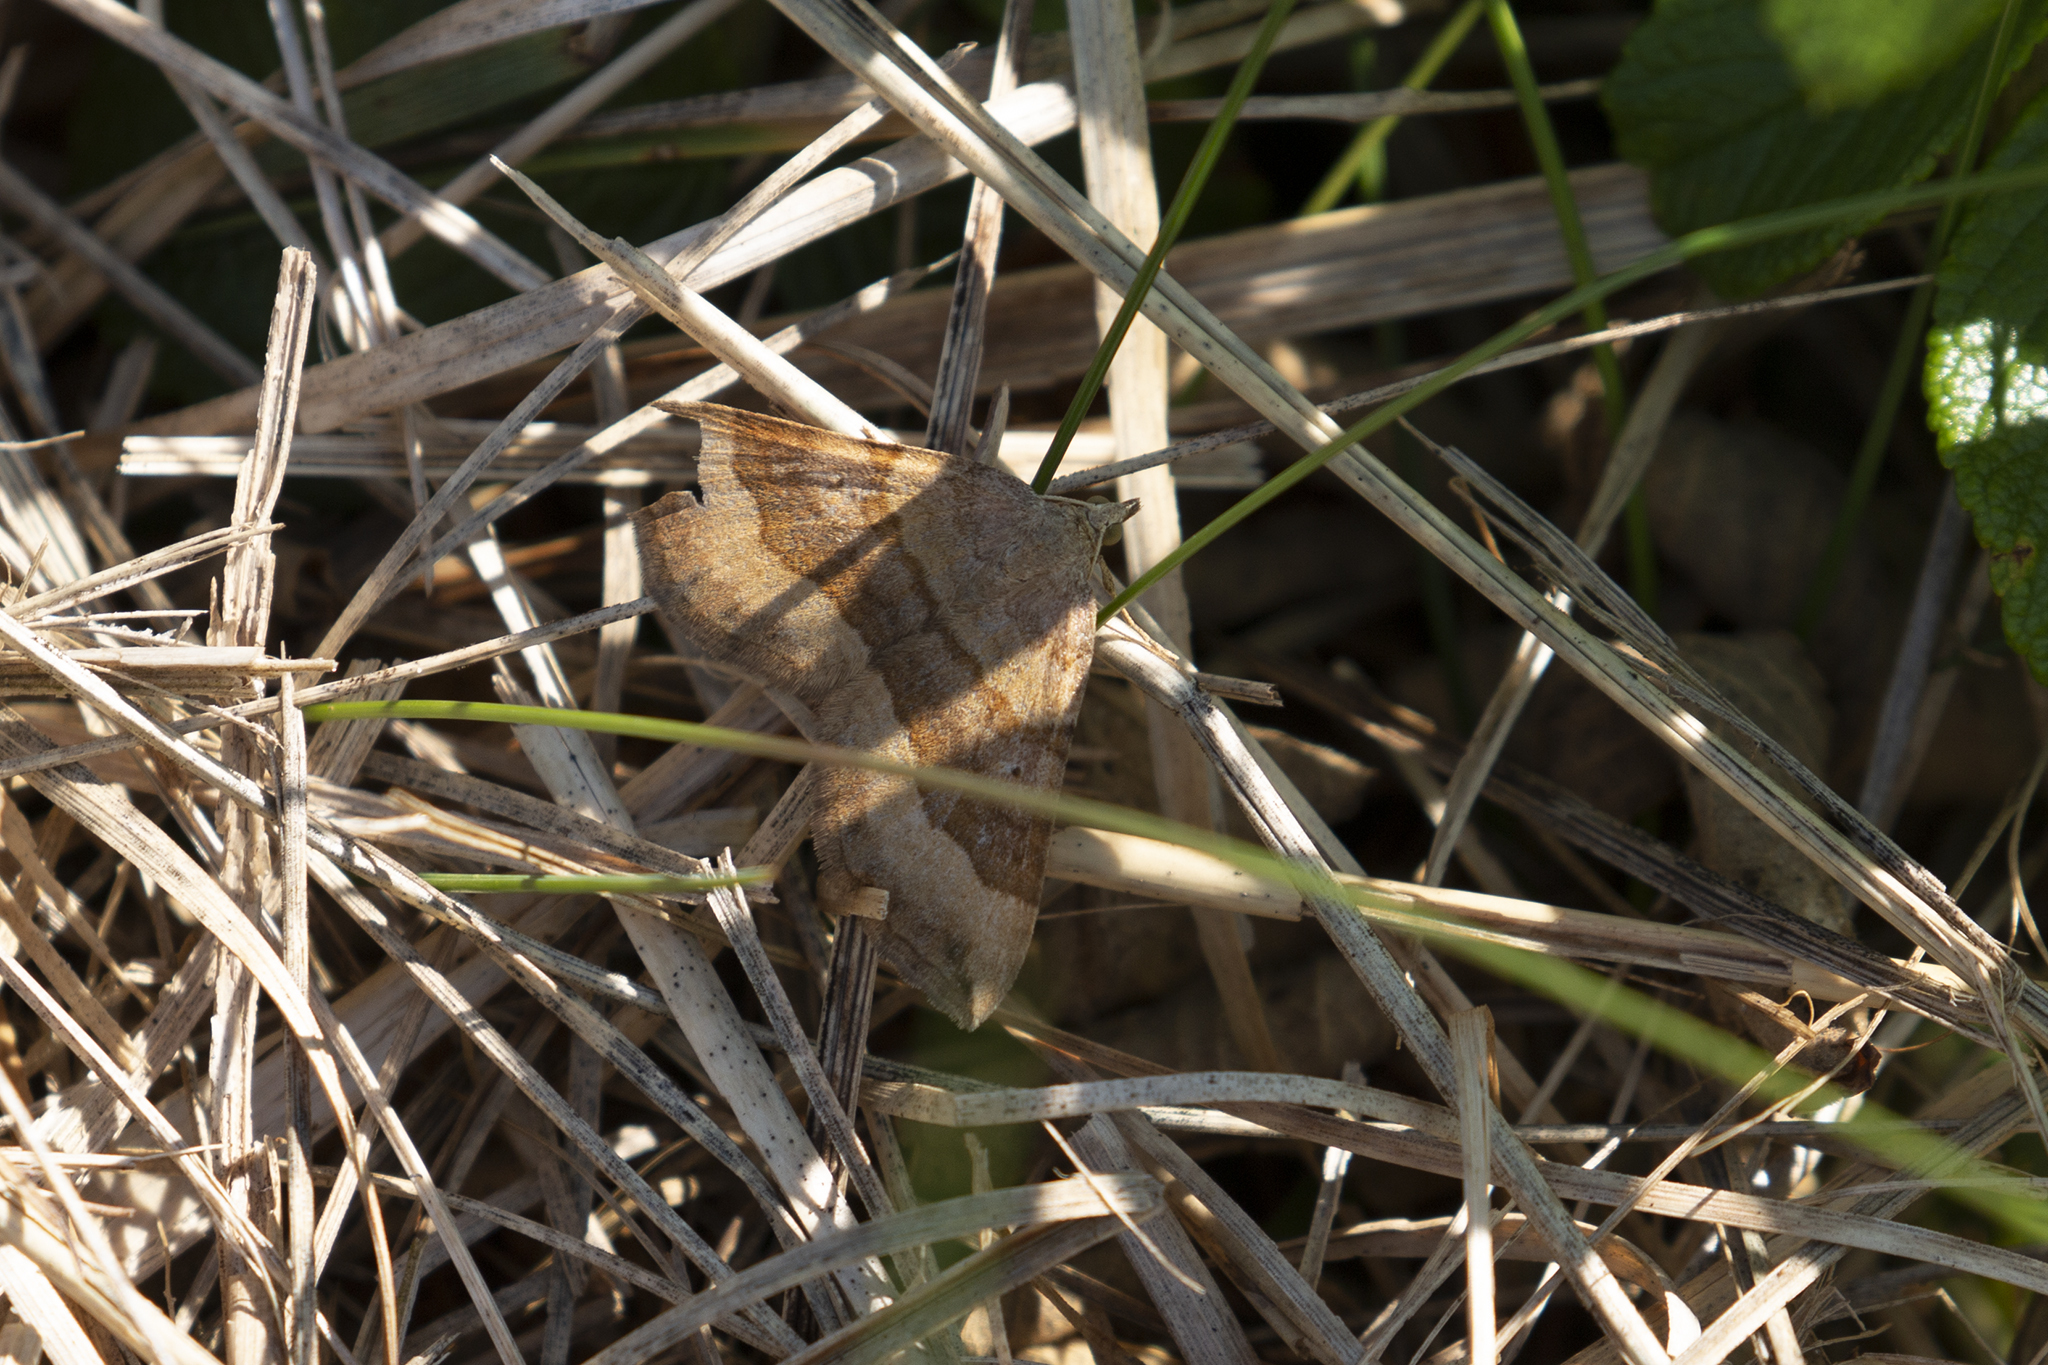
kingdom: Animalia
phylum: Arthropoda
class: Insecta
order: Lepidoptera
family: Geometridae
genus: Scotopteryx
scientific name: Scotopteryx chenopodiata
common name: Shaded broad-bar
